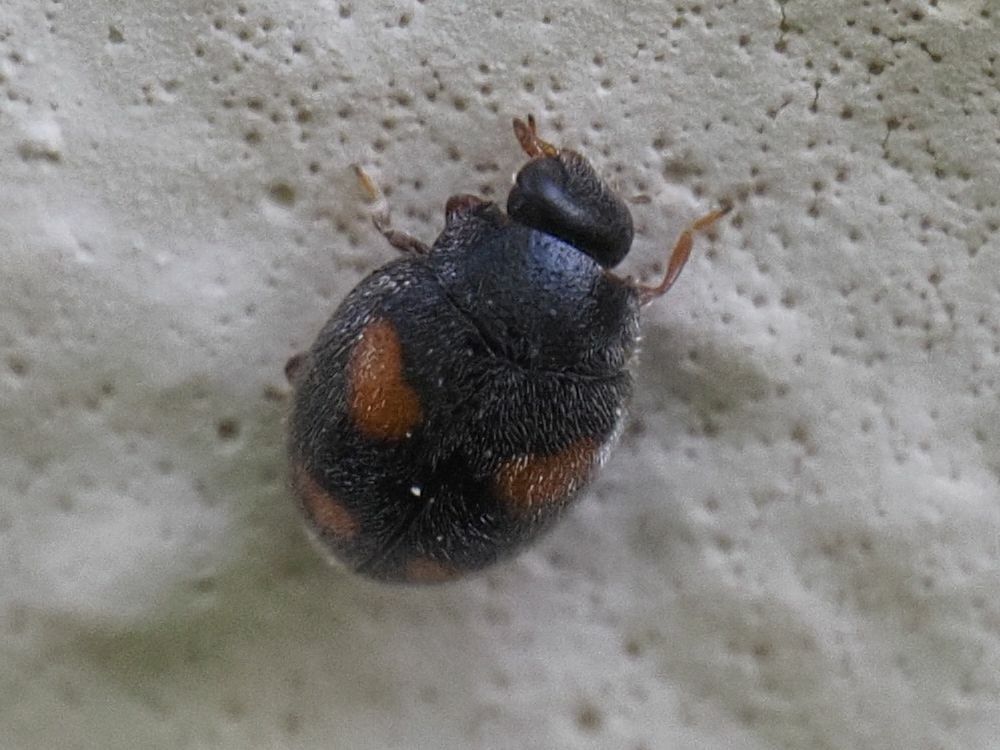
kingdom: Animalia
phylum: Arthropoda
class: Insecta
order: Coleoptera
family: Coccinellidae
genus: Nephus
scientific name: Nephus quadrimaculatus
